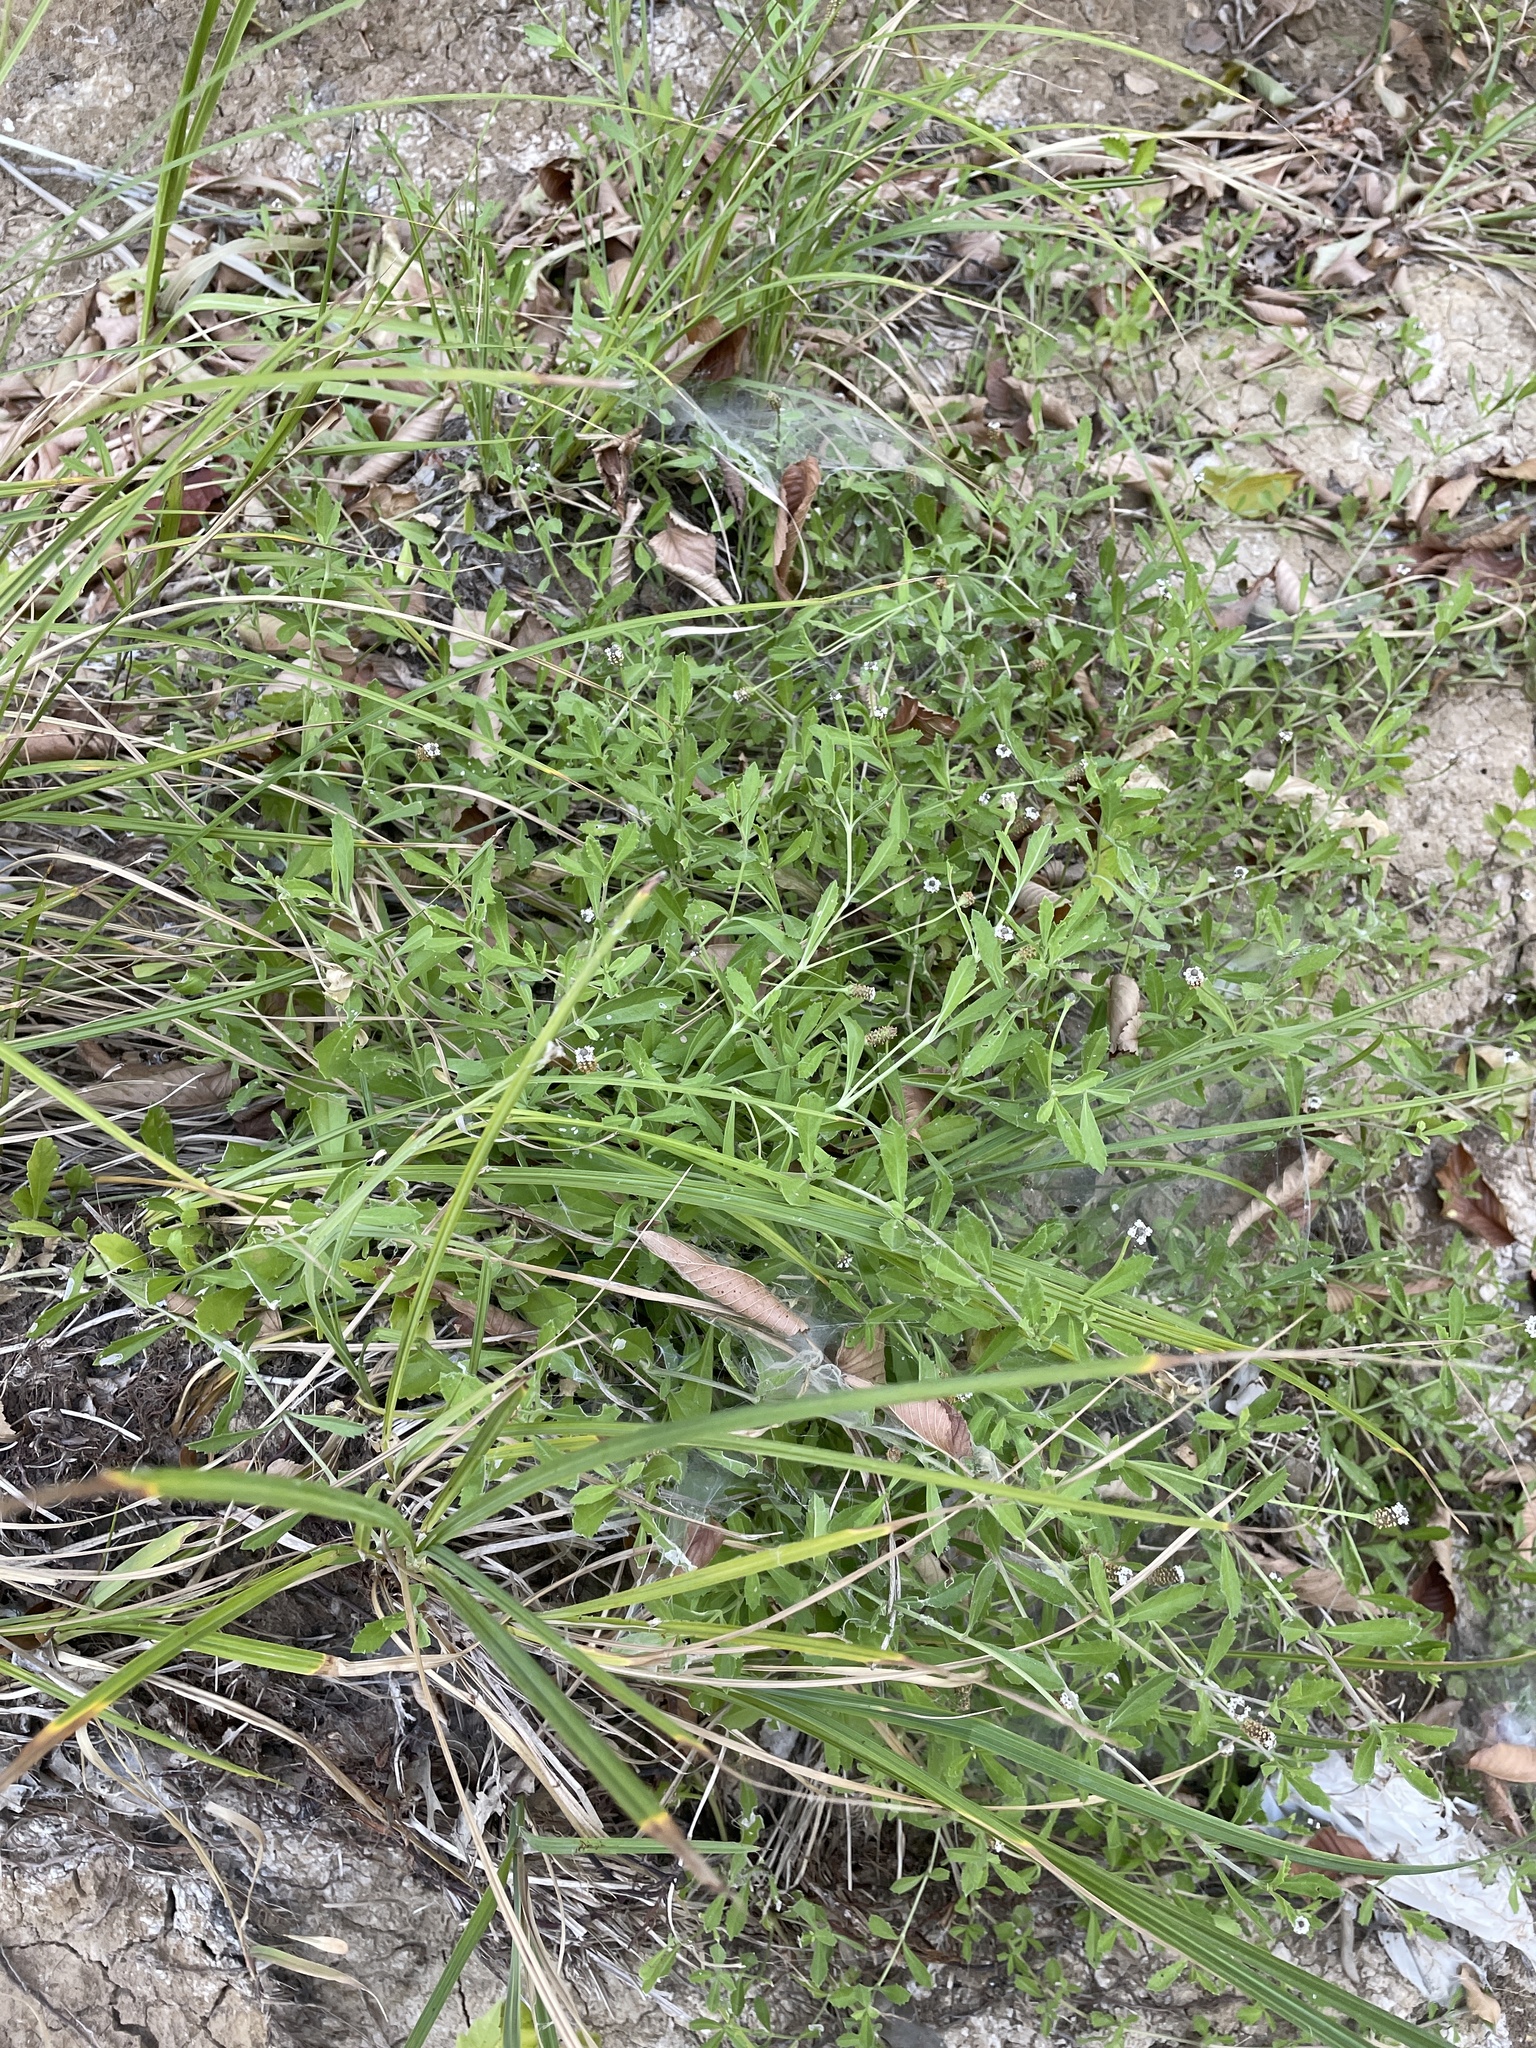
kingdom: Plantae
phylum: Tracheophyta
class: Magnoliopsida
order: Lamiales
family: Verbenaceae
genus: Phyla
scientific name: Phyla nodiflora
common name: Frogfruit
